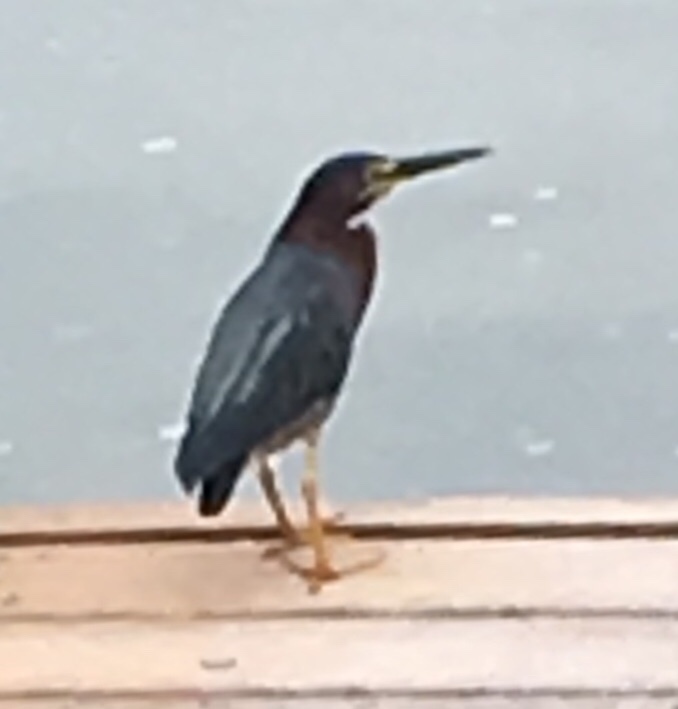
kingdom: Animalia
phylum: Chordata
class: Aves
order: Pelecaniformes
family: Ardeidae
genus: Butorides
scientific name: Butorides virescens
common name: Green heron
